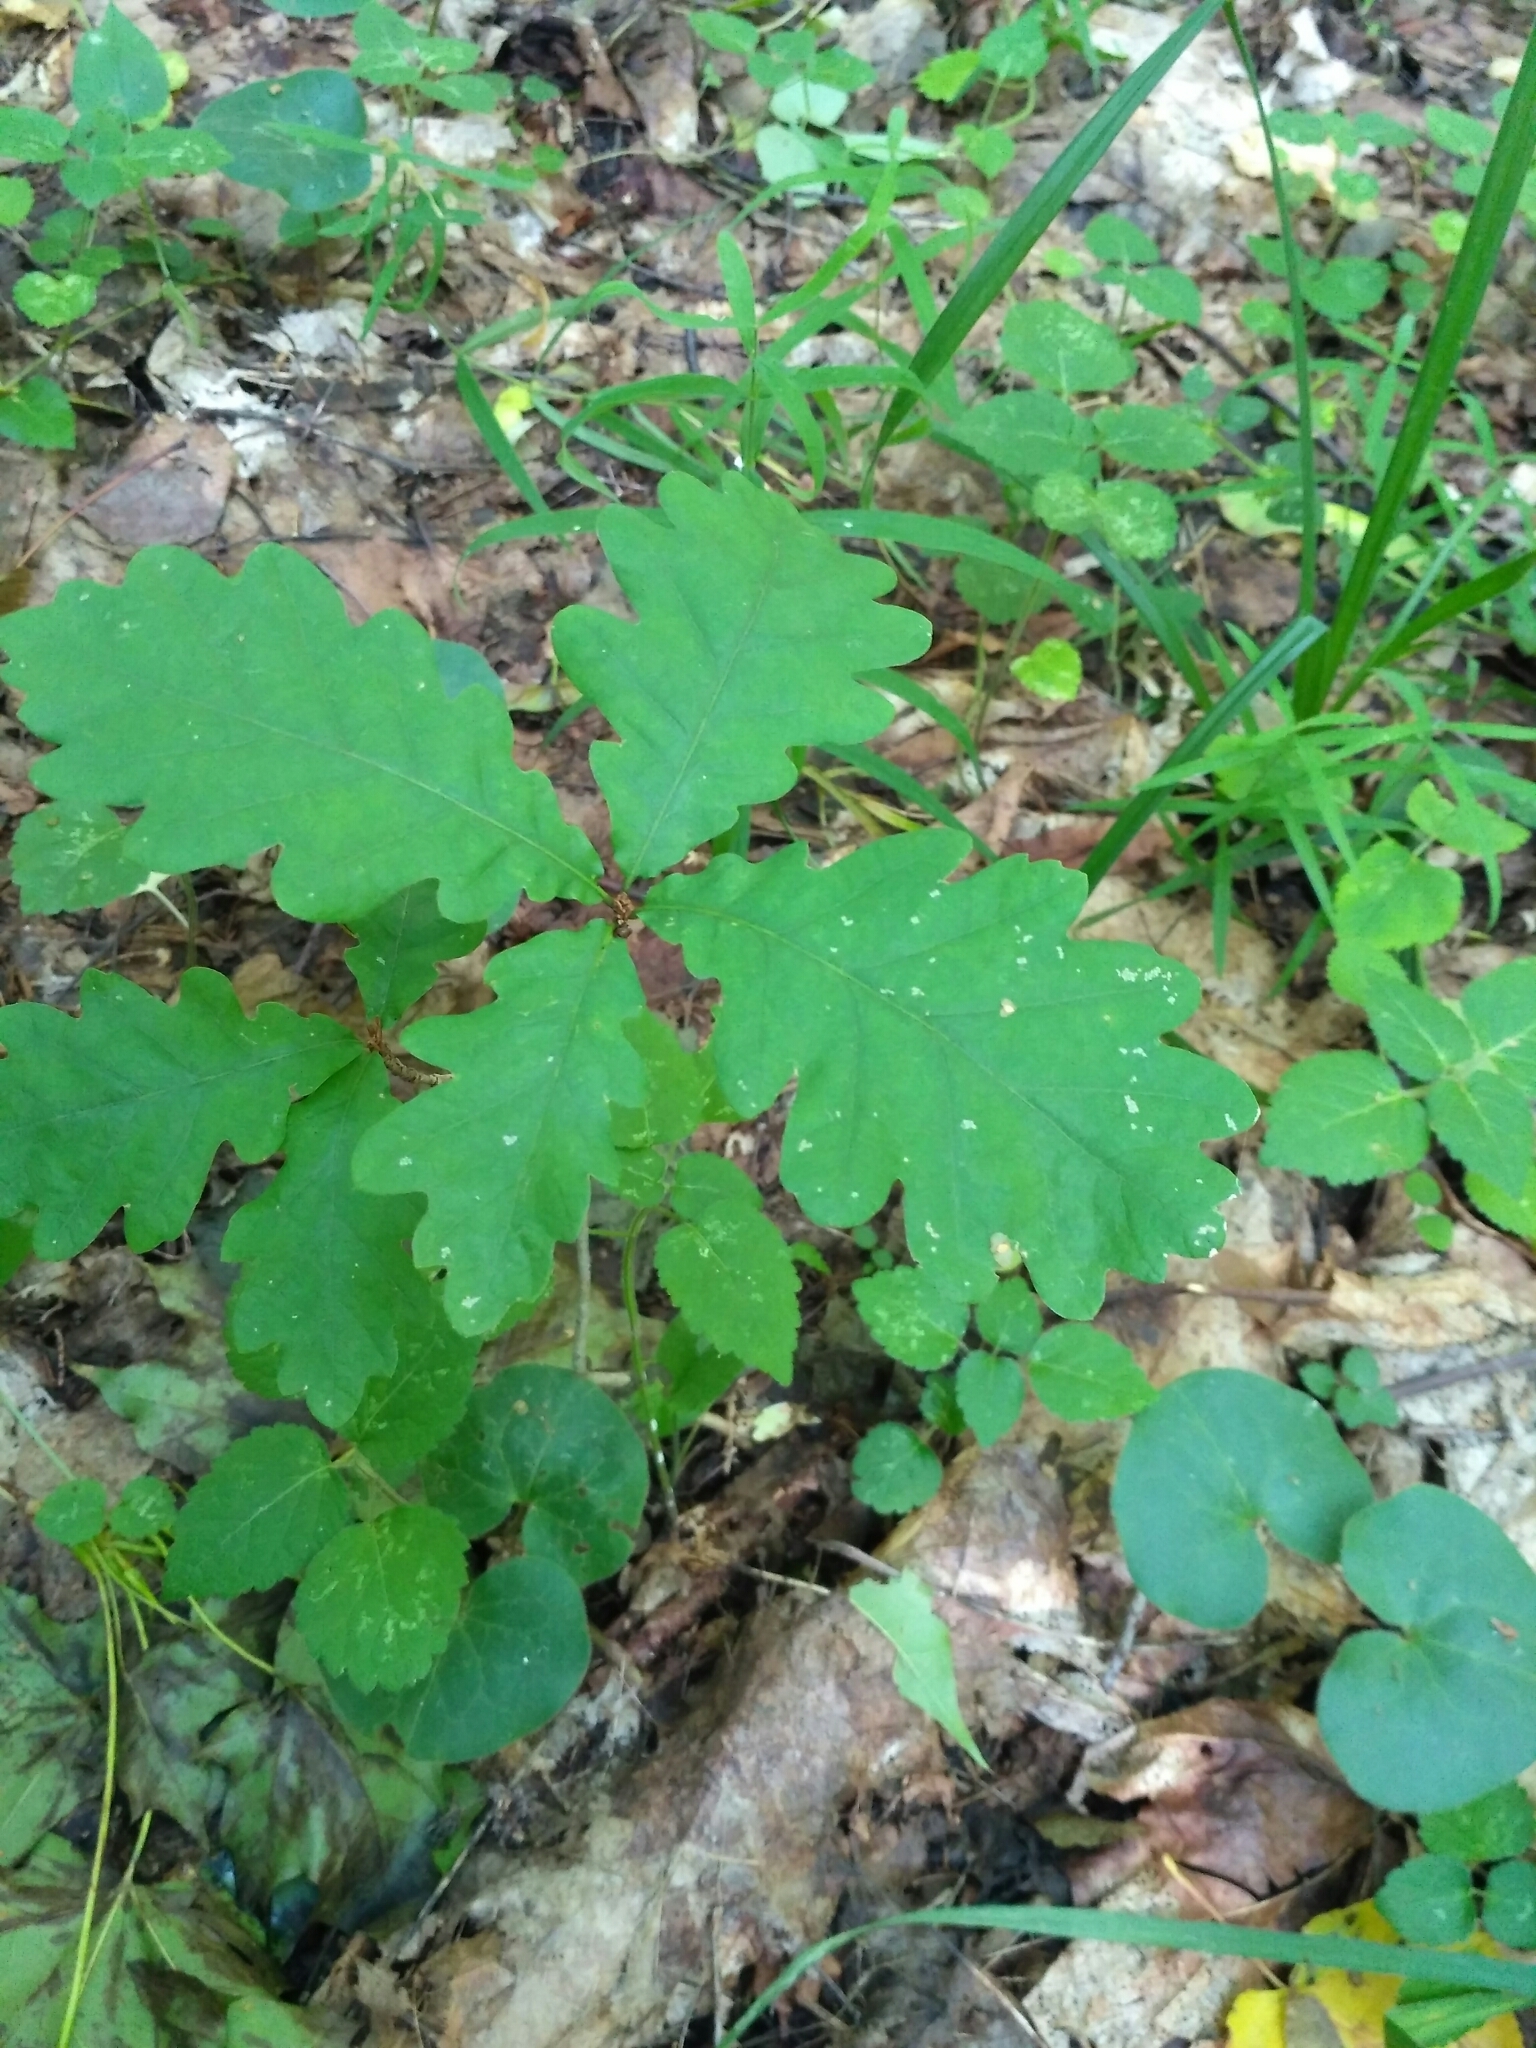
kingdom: Plantae
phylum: Tracheophyta
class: Magnoliopsida
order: Fagales
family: Fagaceae
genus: Quercus
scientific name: Quercus robur
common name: Pedunculate oak
